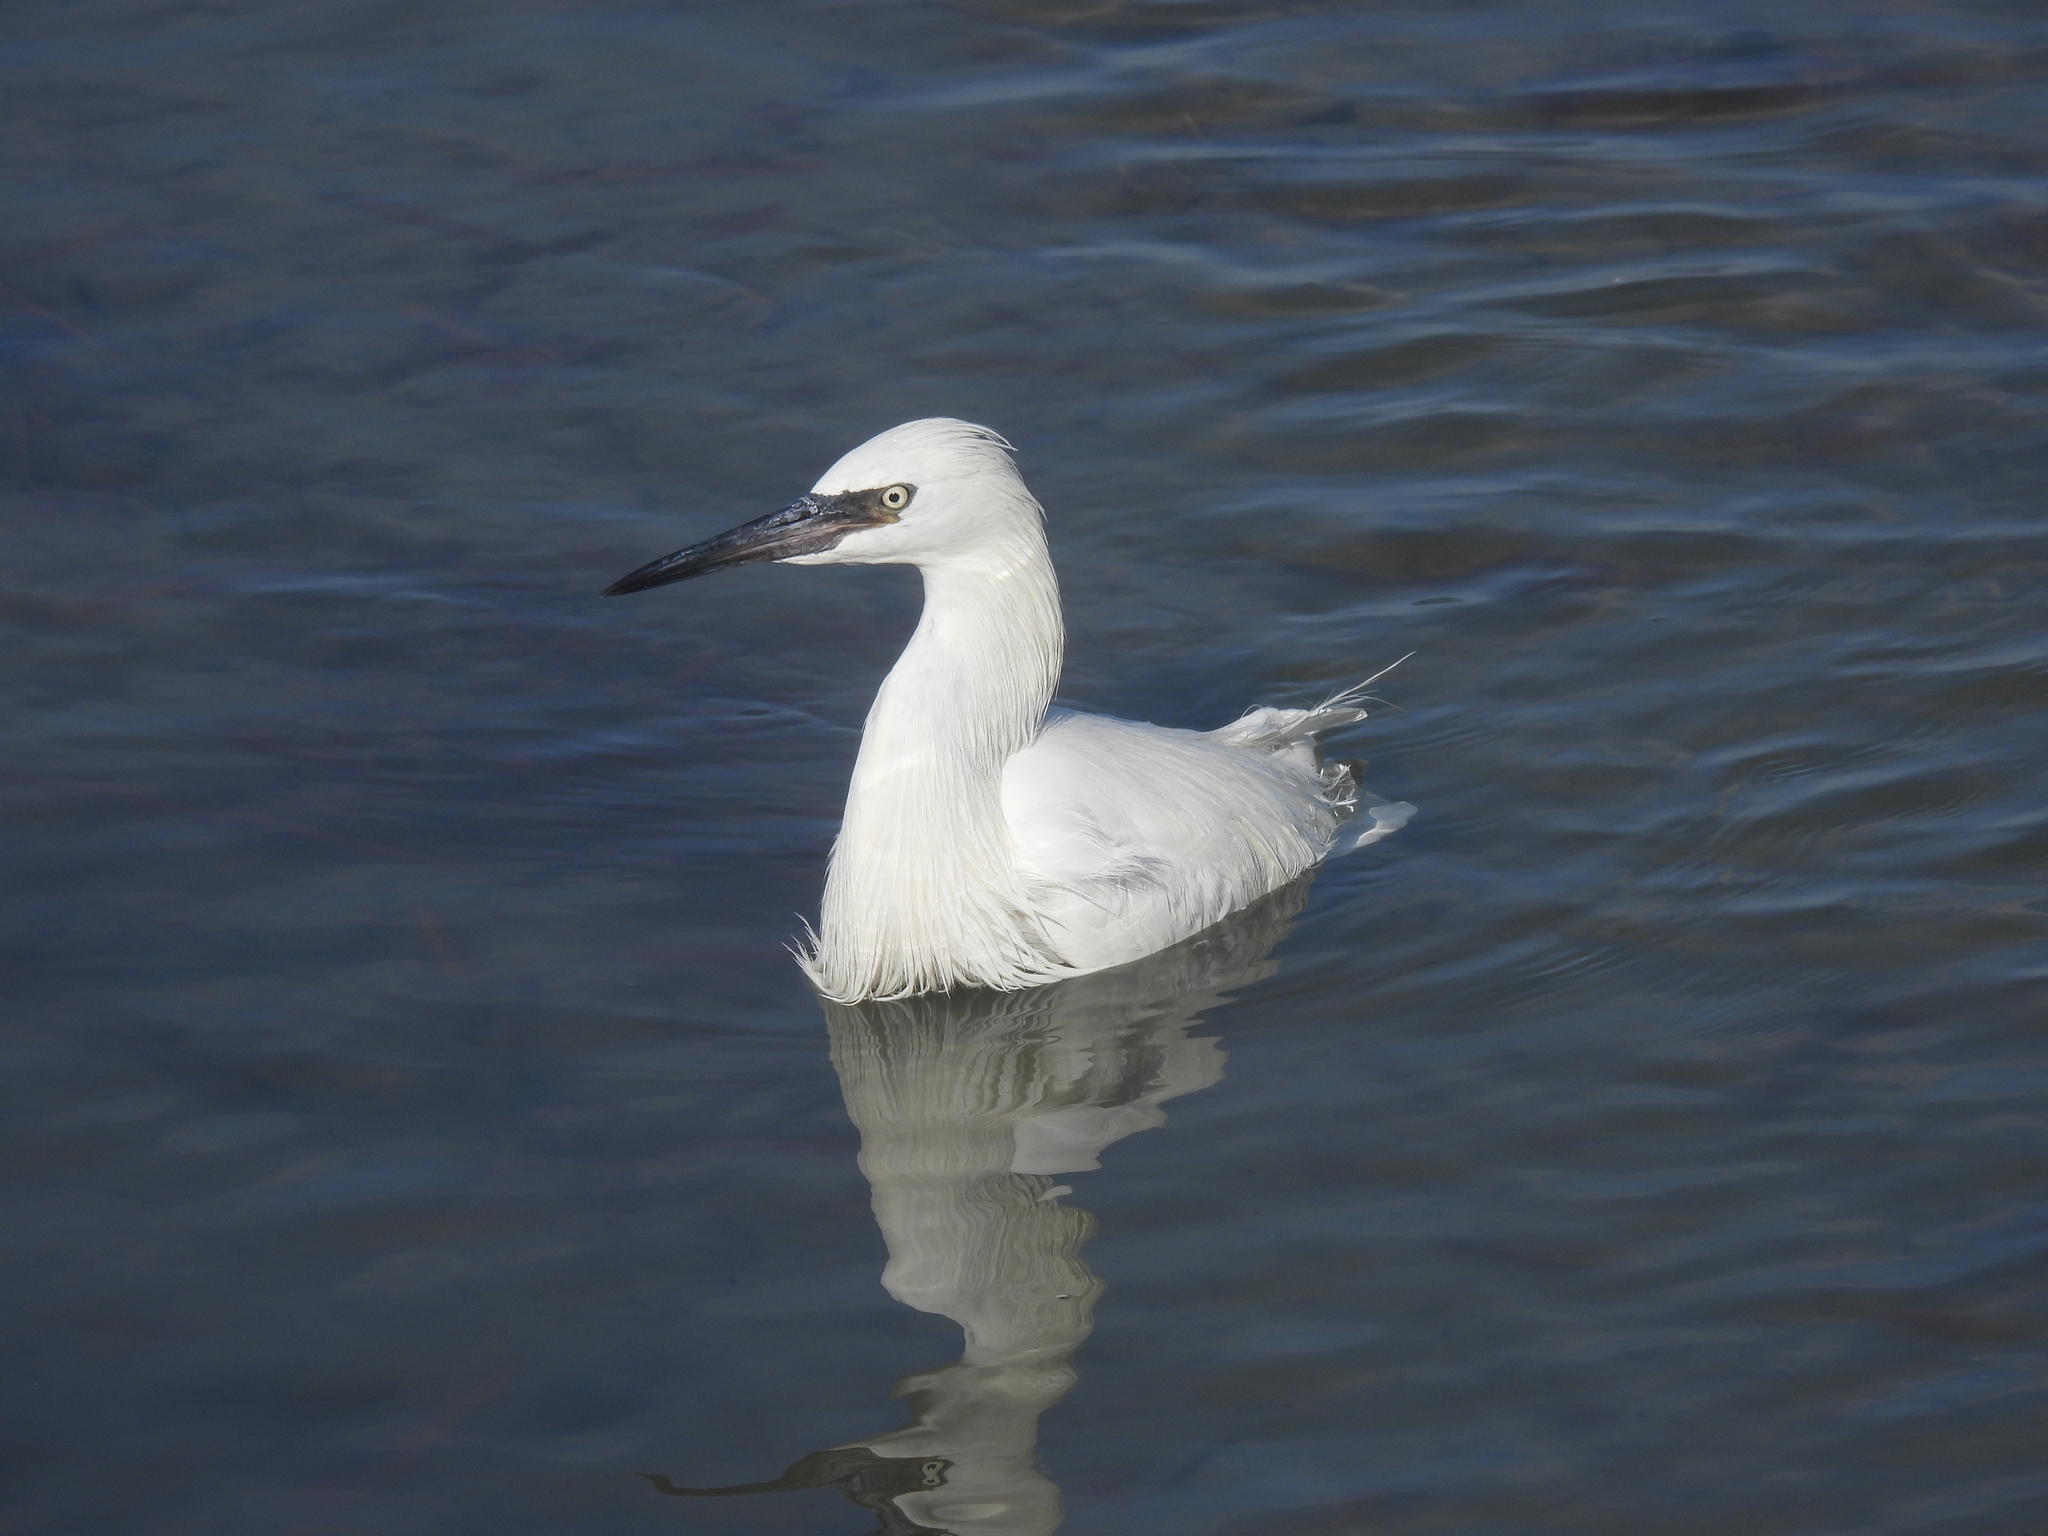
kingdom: Animalia
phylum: Chordata
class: Aves
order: Pelecaniformes
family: Ardeidae
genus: Egretta
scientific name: Egretta rufescens
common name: Reddish egret
